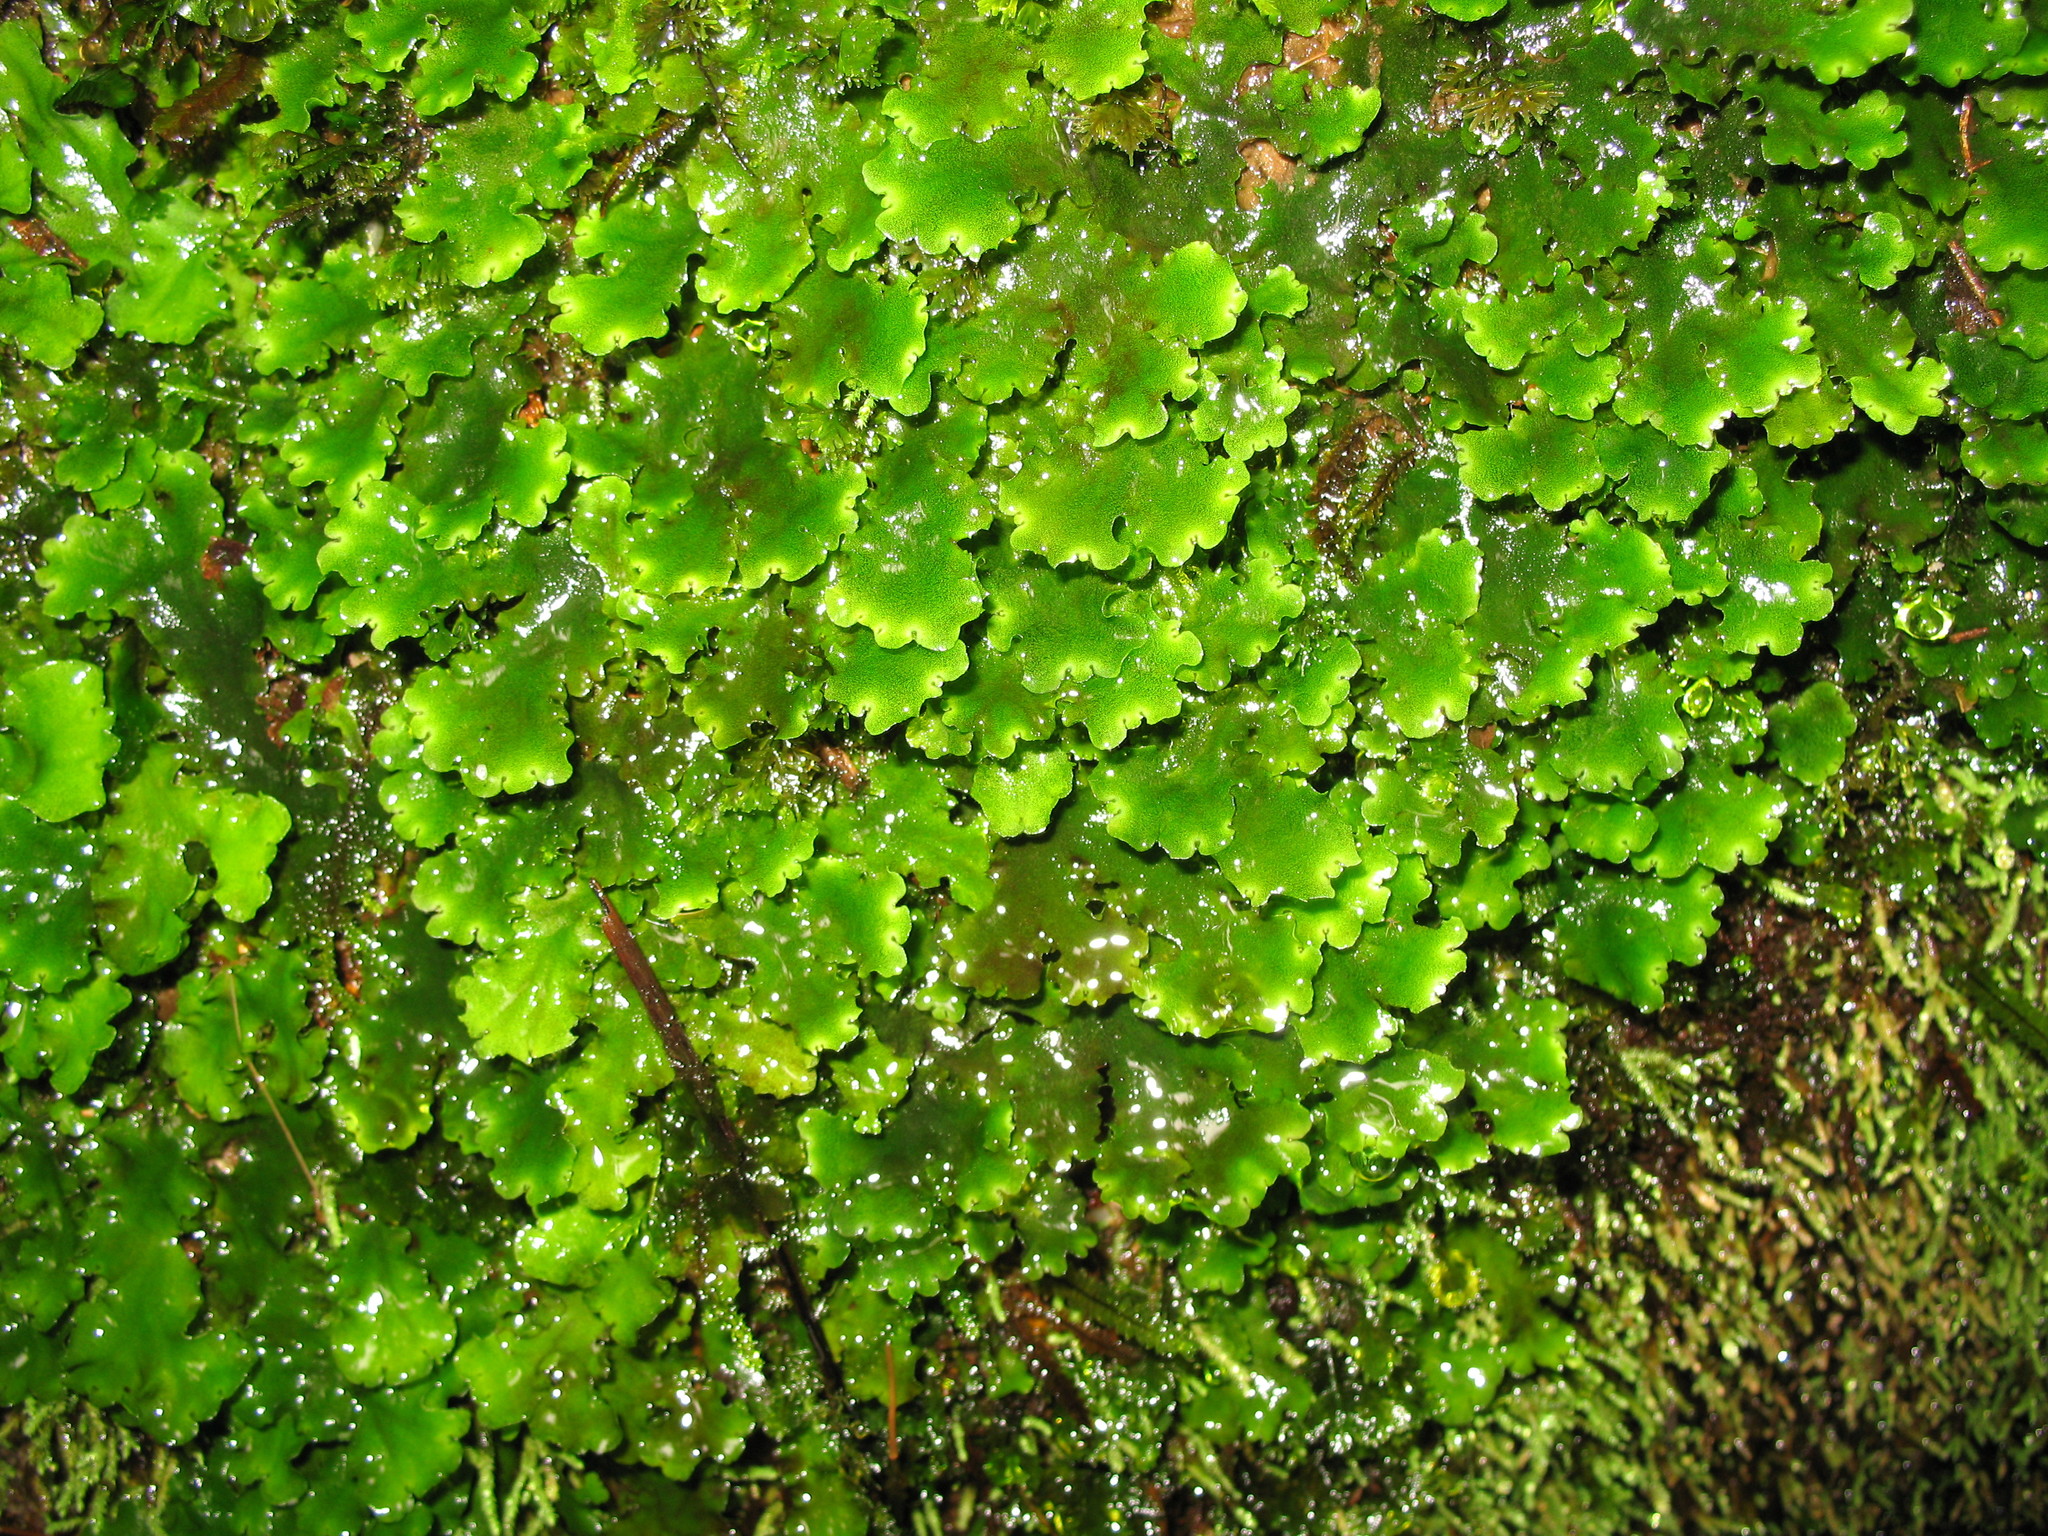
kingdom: Plantae
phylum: Marchantiophyta
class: Marchantiopsida
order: Marchantiales
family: Monocleaceae
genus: Monoclea
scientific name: Monoclea gottschei
